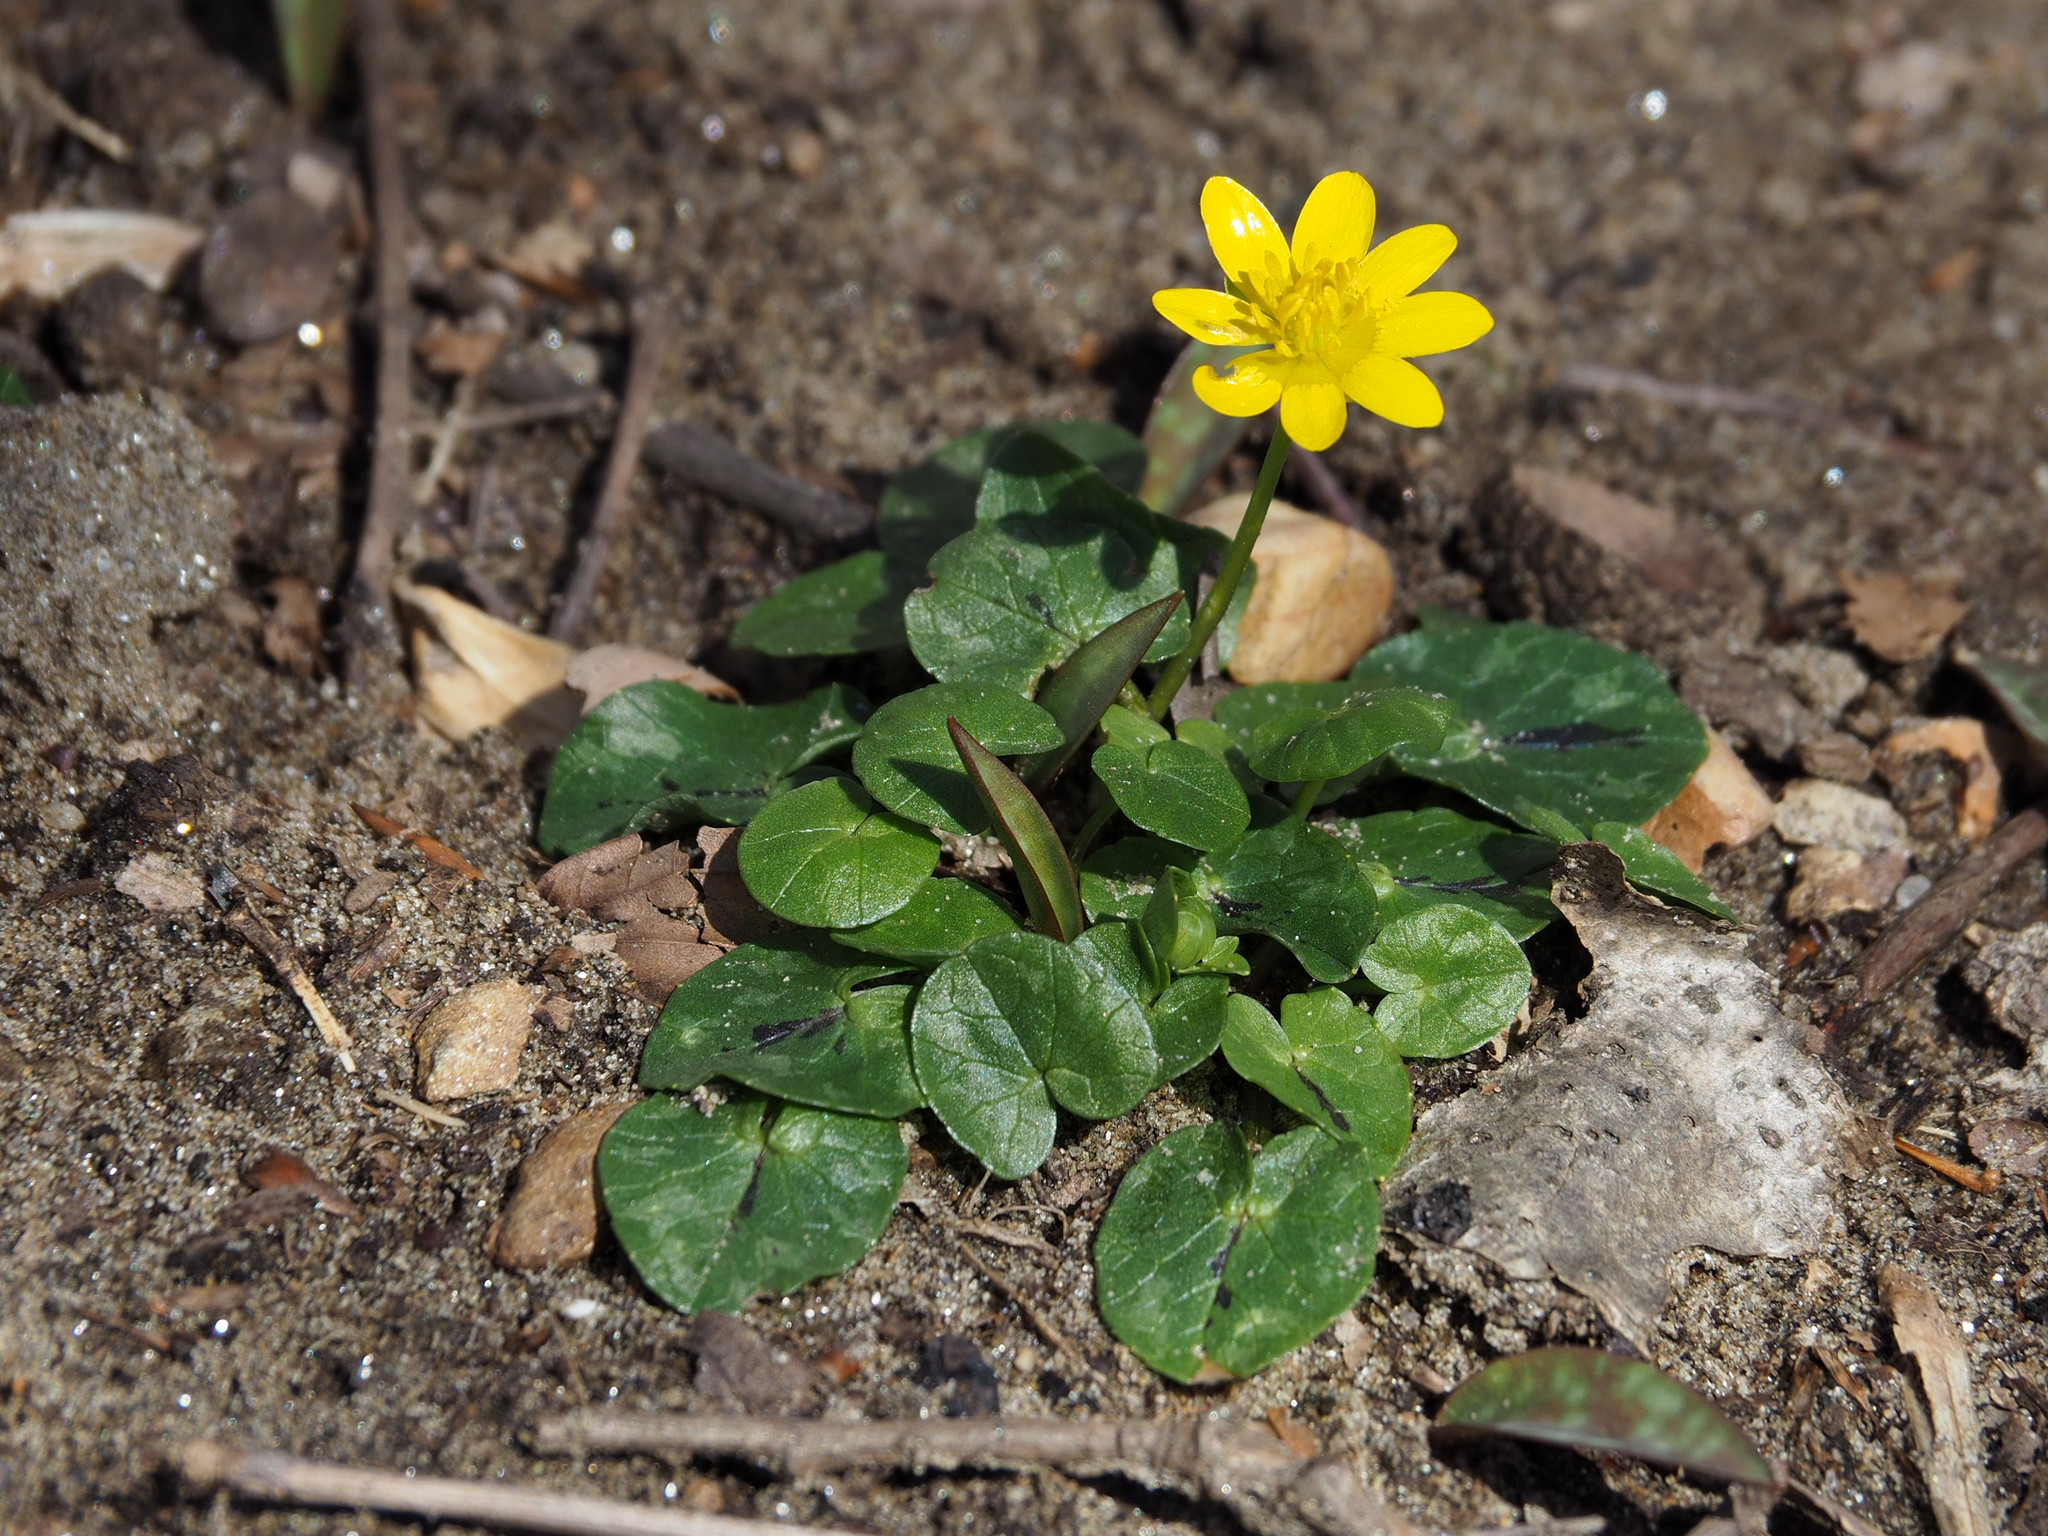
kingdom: Plantae
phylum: Tracheophyta
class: Magnoliopsida
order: Ranunculales
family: Ranunculaceae
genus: Ficaria
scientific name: Ficaria verna
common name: Lesser celandine
